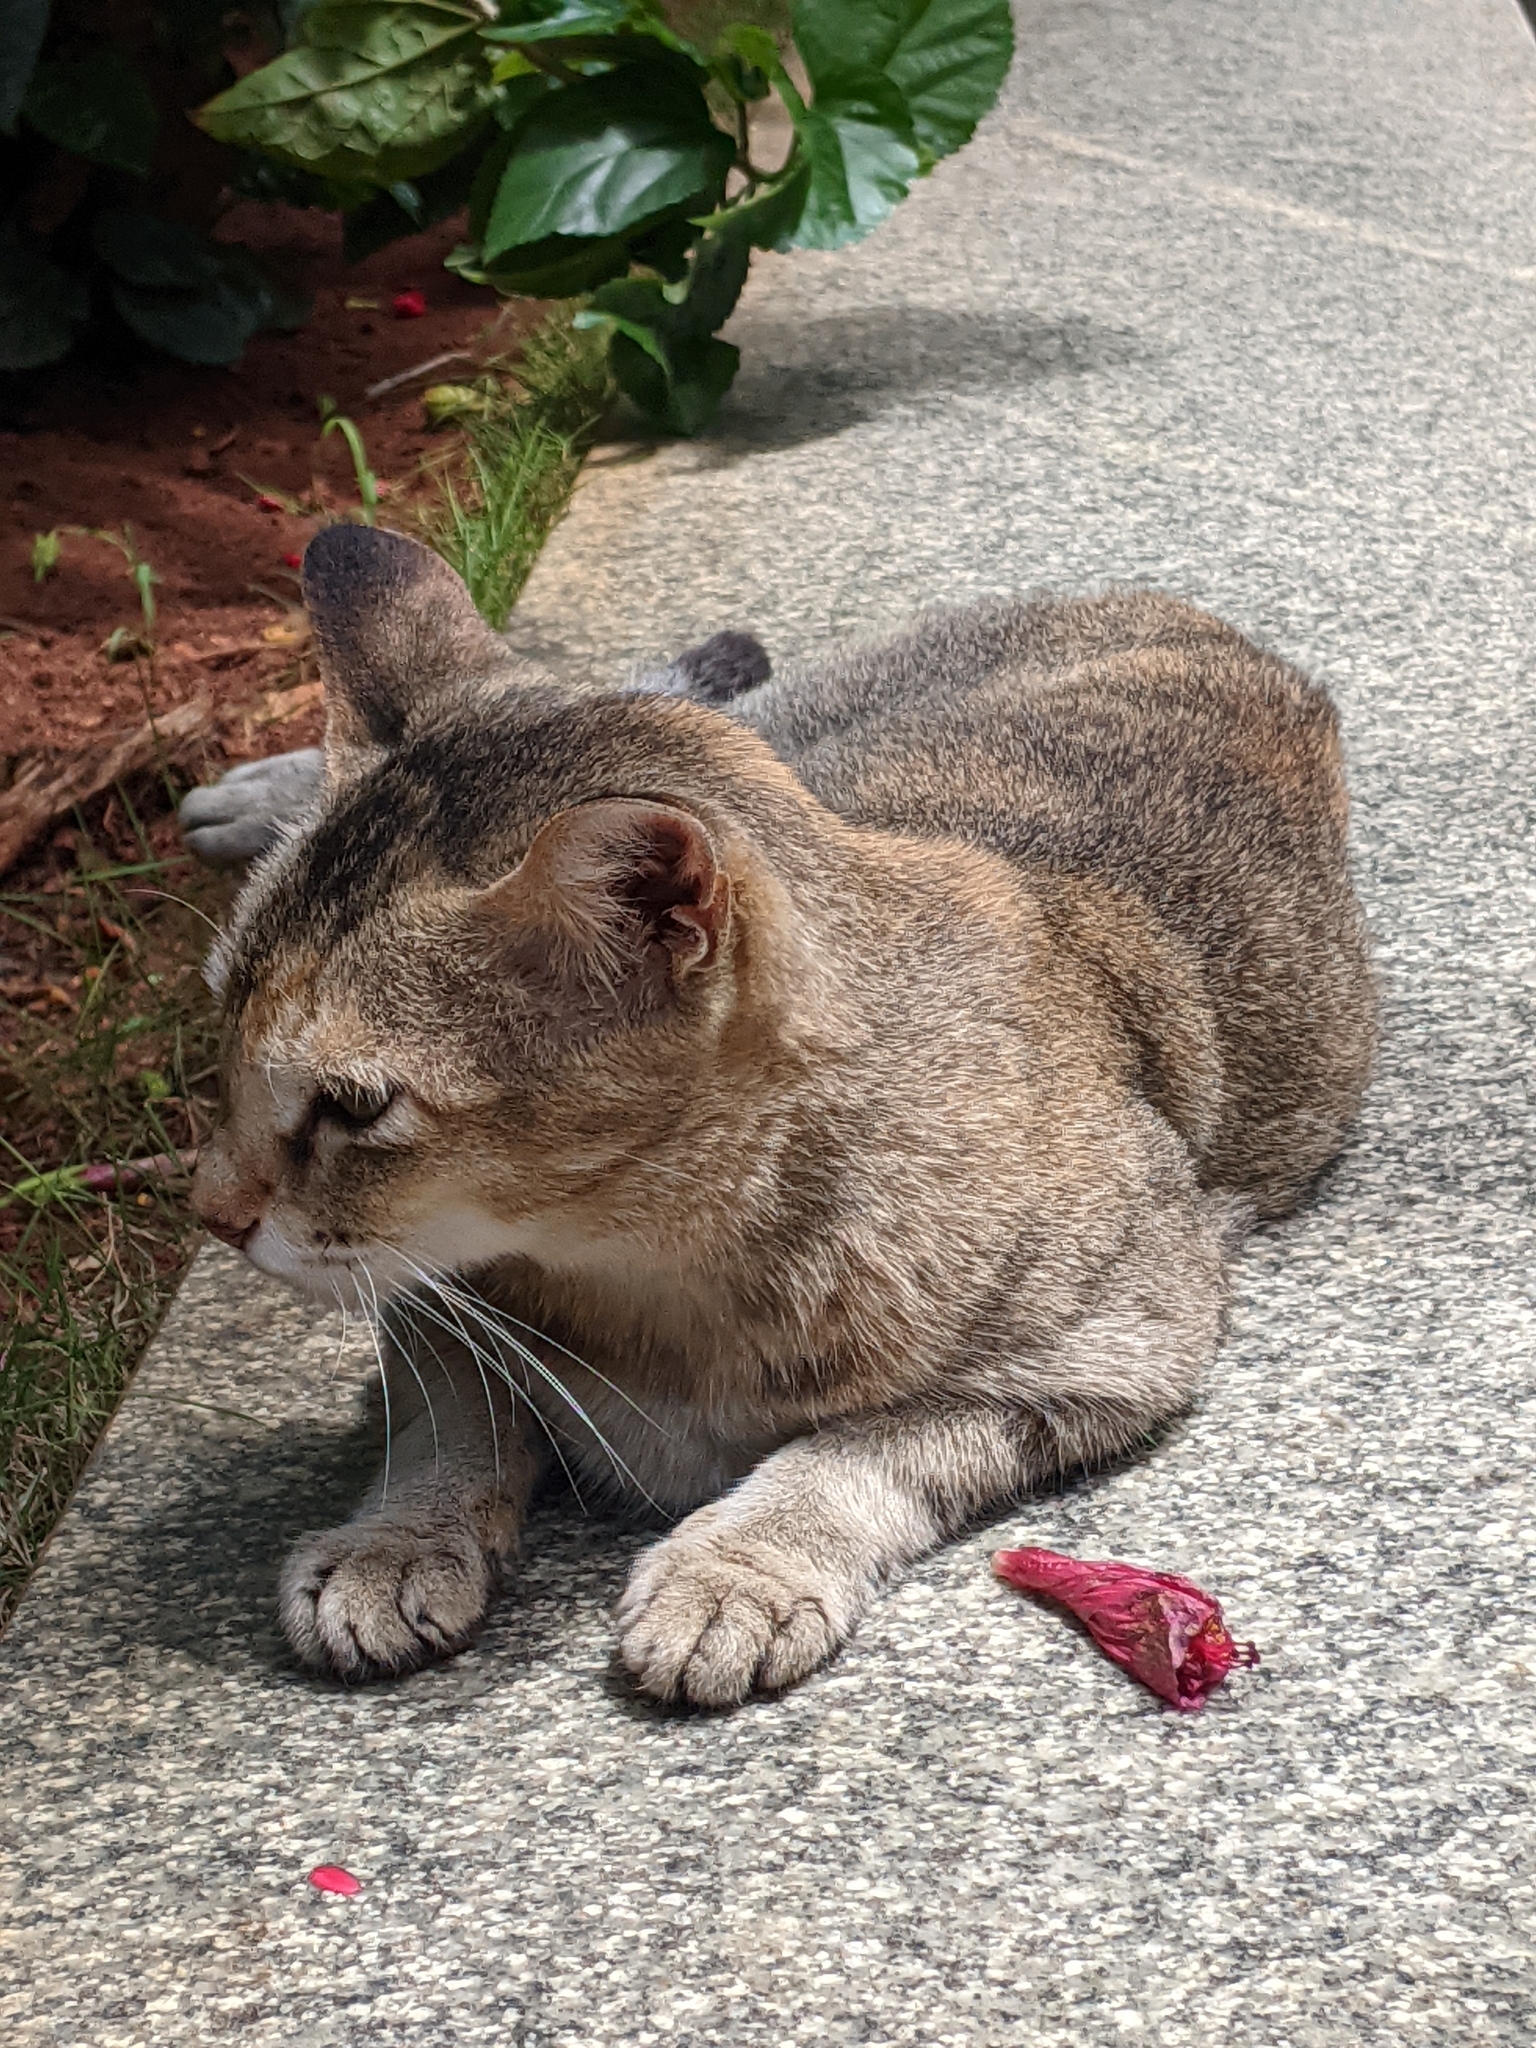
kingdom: Animalia
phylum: Chordata
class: Mammalia
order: Carnivora
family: Felidae
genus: Felis
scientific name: Felis catus
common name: Domestic cat
